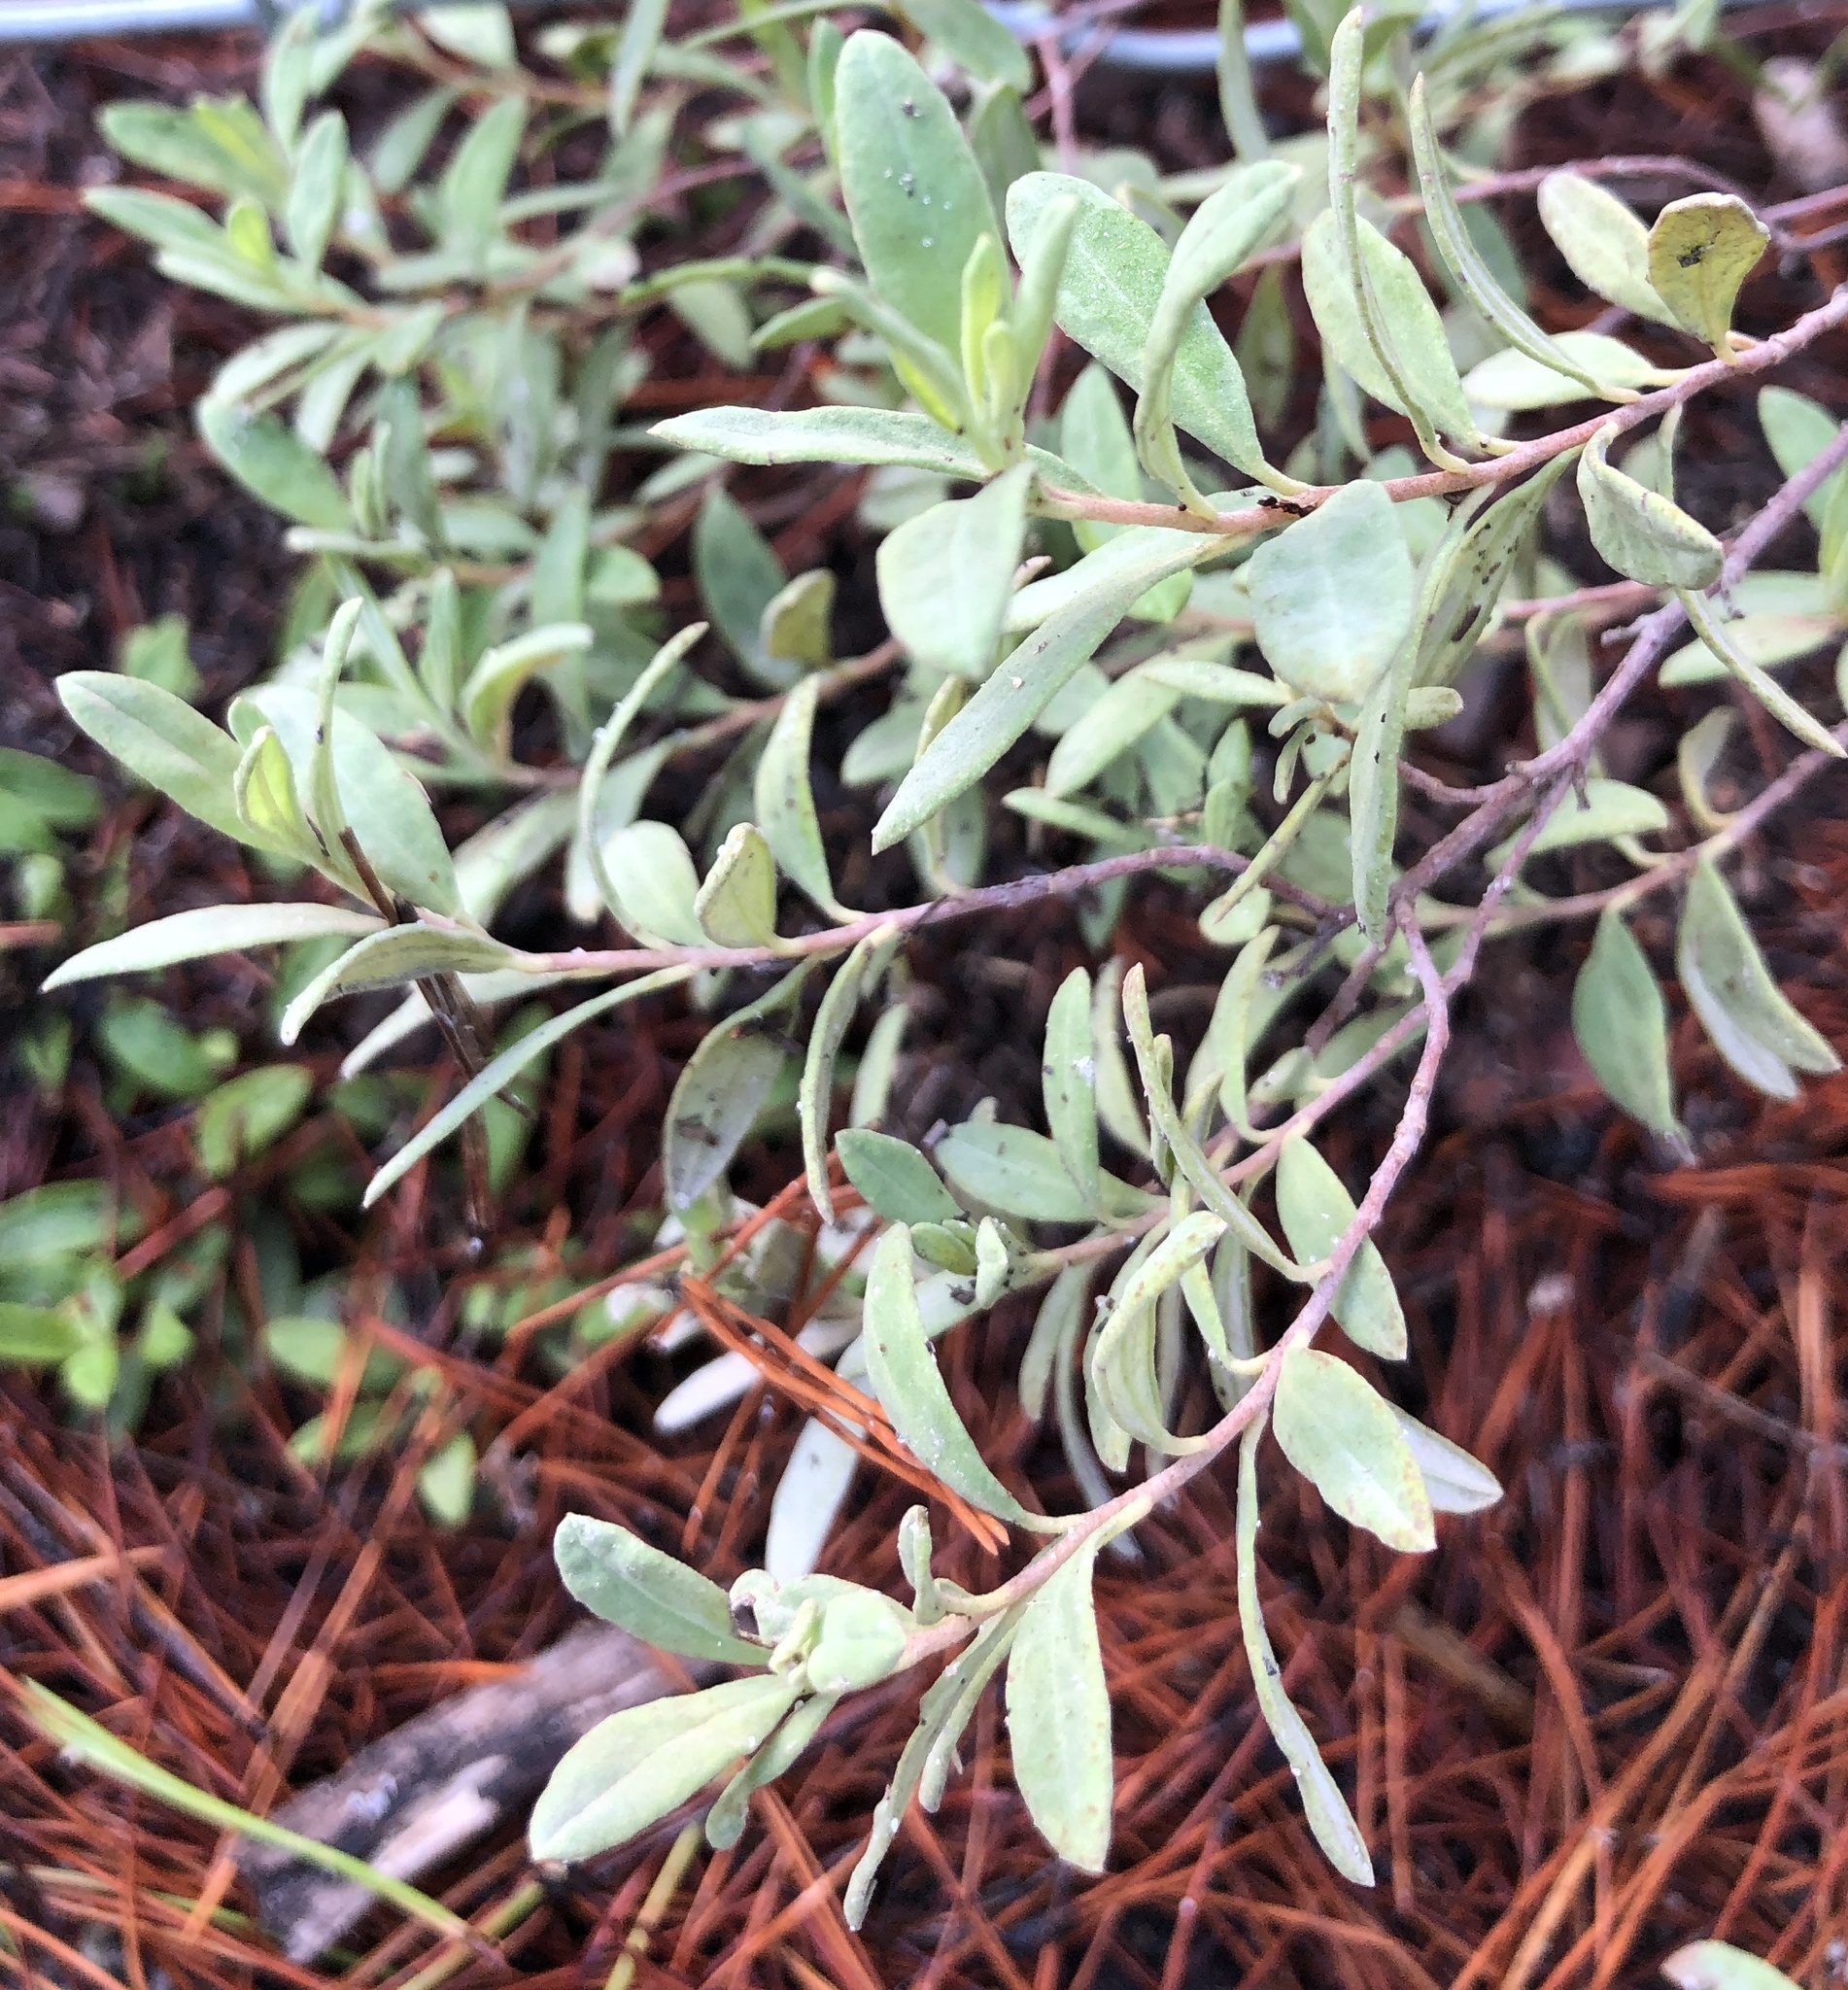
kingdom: Plantae
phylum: Tracheophyta
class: Magnoliopsida
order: Malvales
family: Cistaceae
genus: Crocanthemum
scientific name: Crocanthemum nashii
